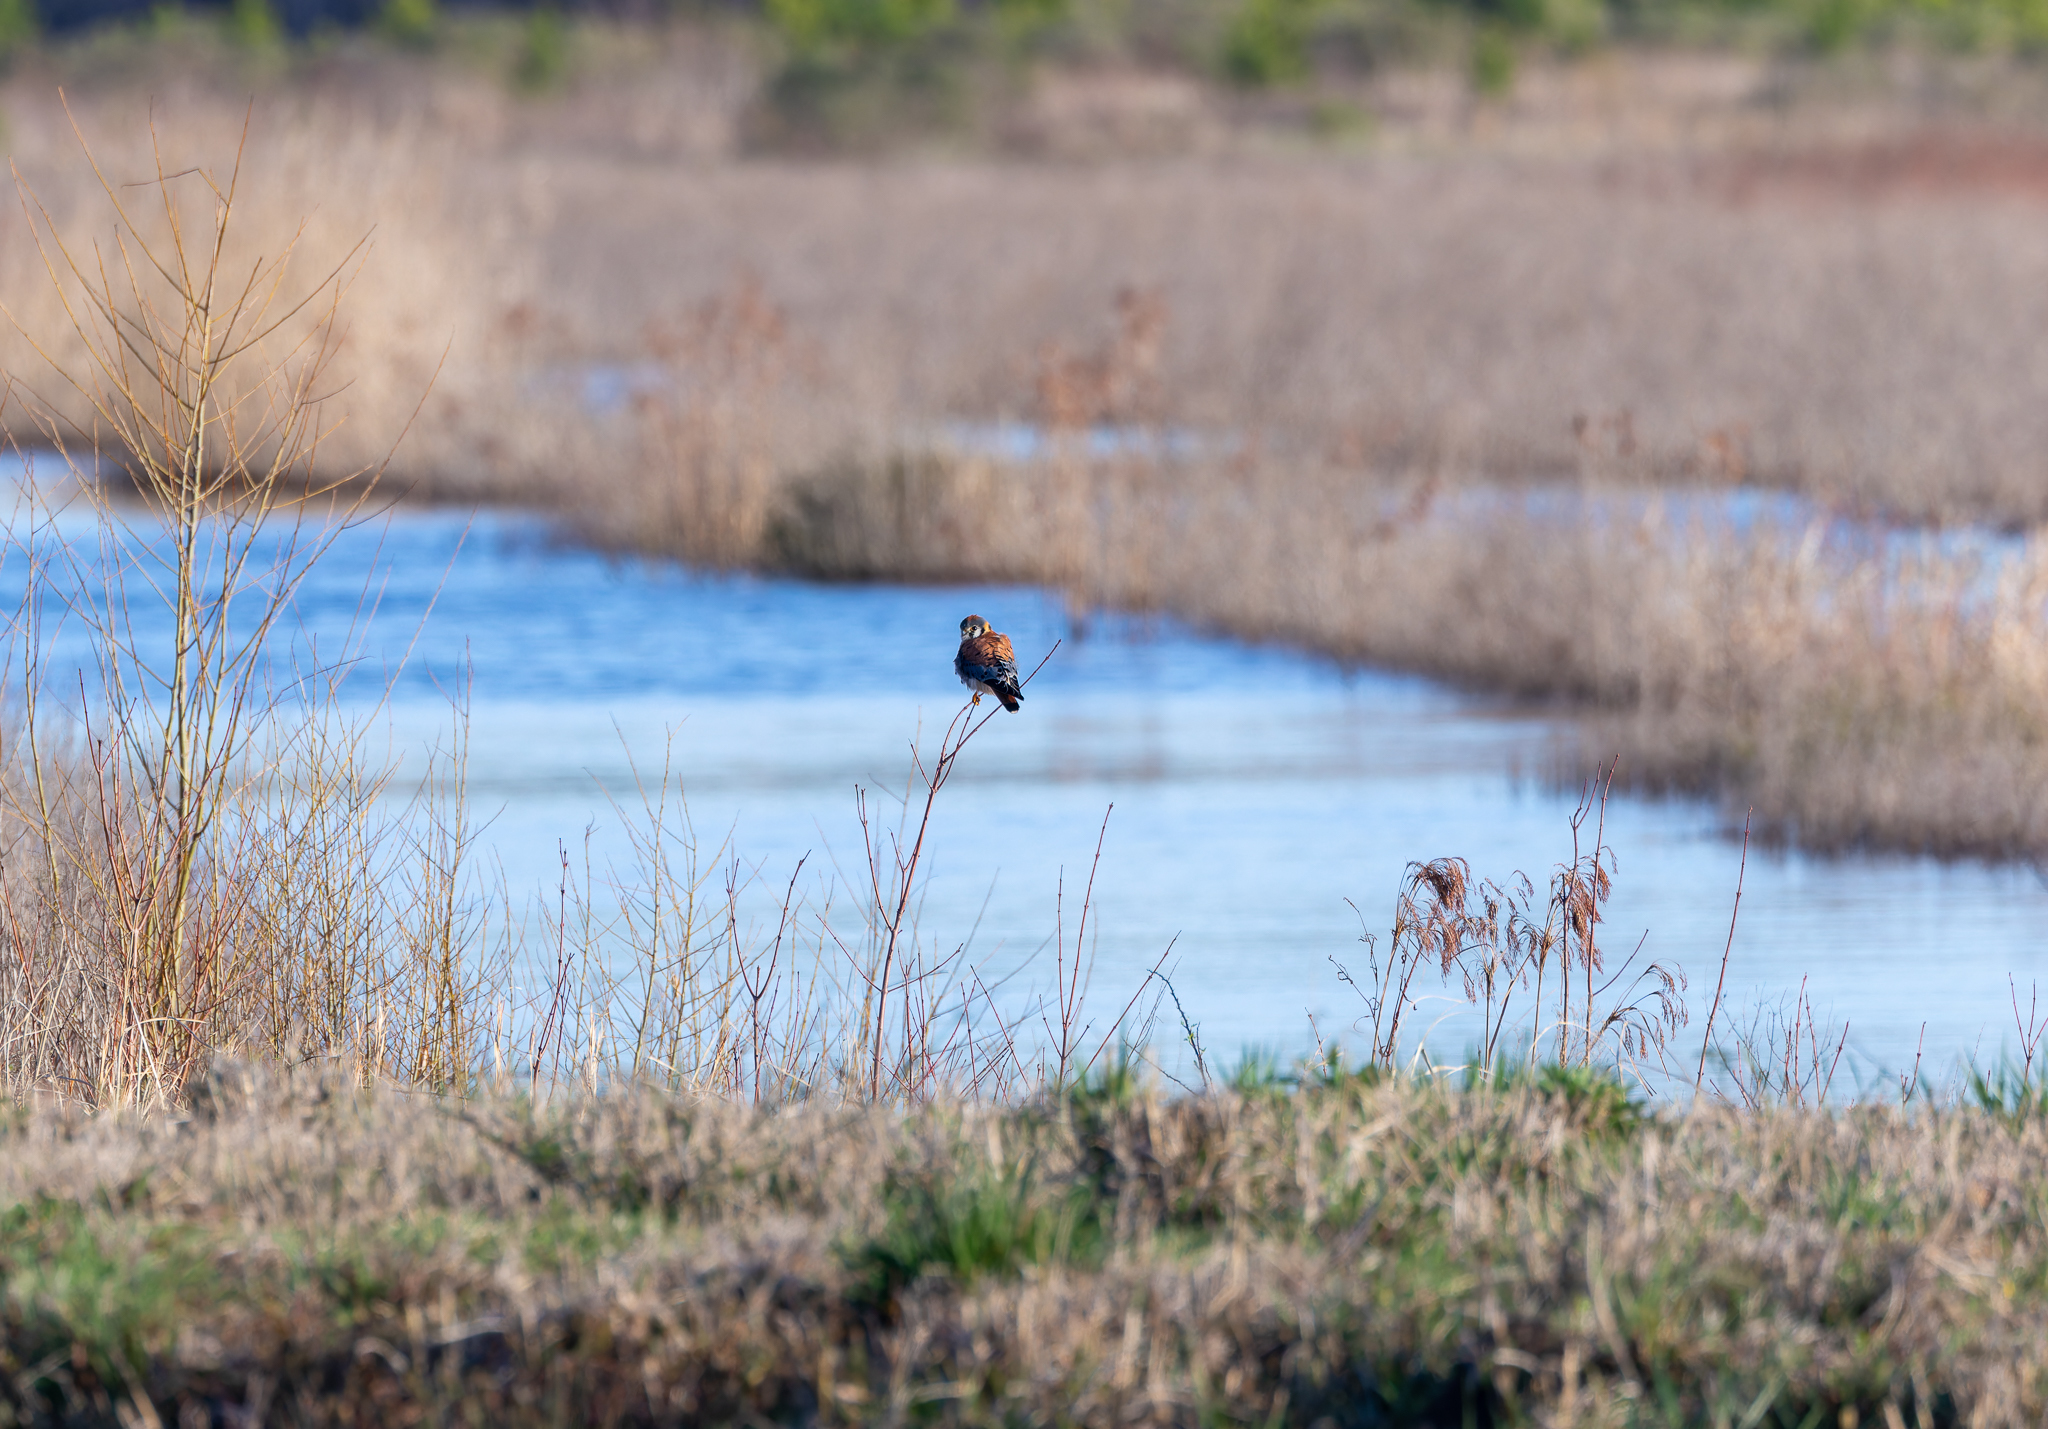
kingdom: Animalia
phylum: Chordata
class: Aves
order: Falconiformes
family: Falconidae
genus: Falco
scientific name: Falco sparverius
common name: American kestrel
